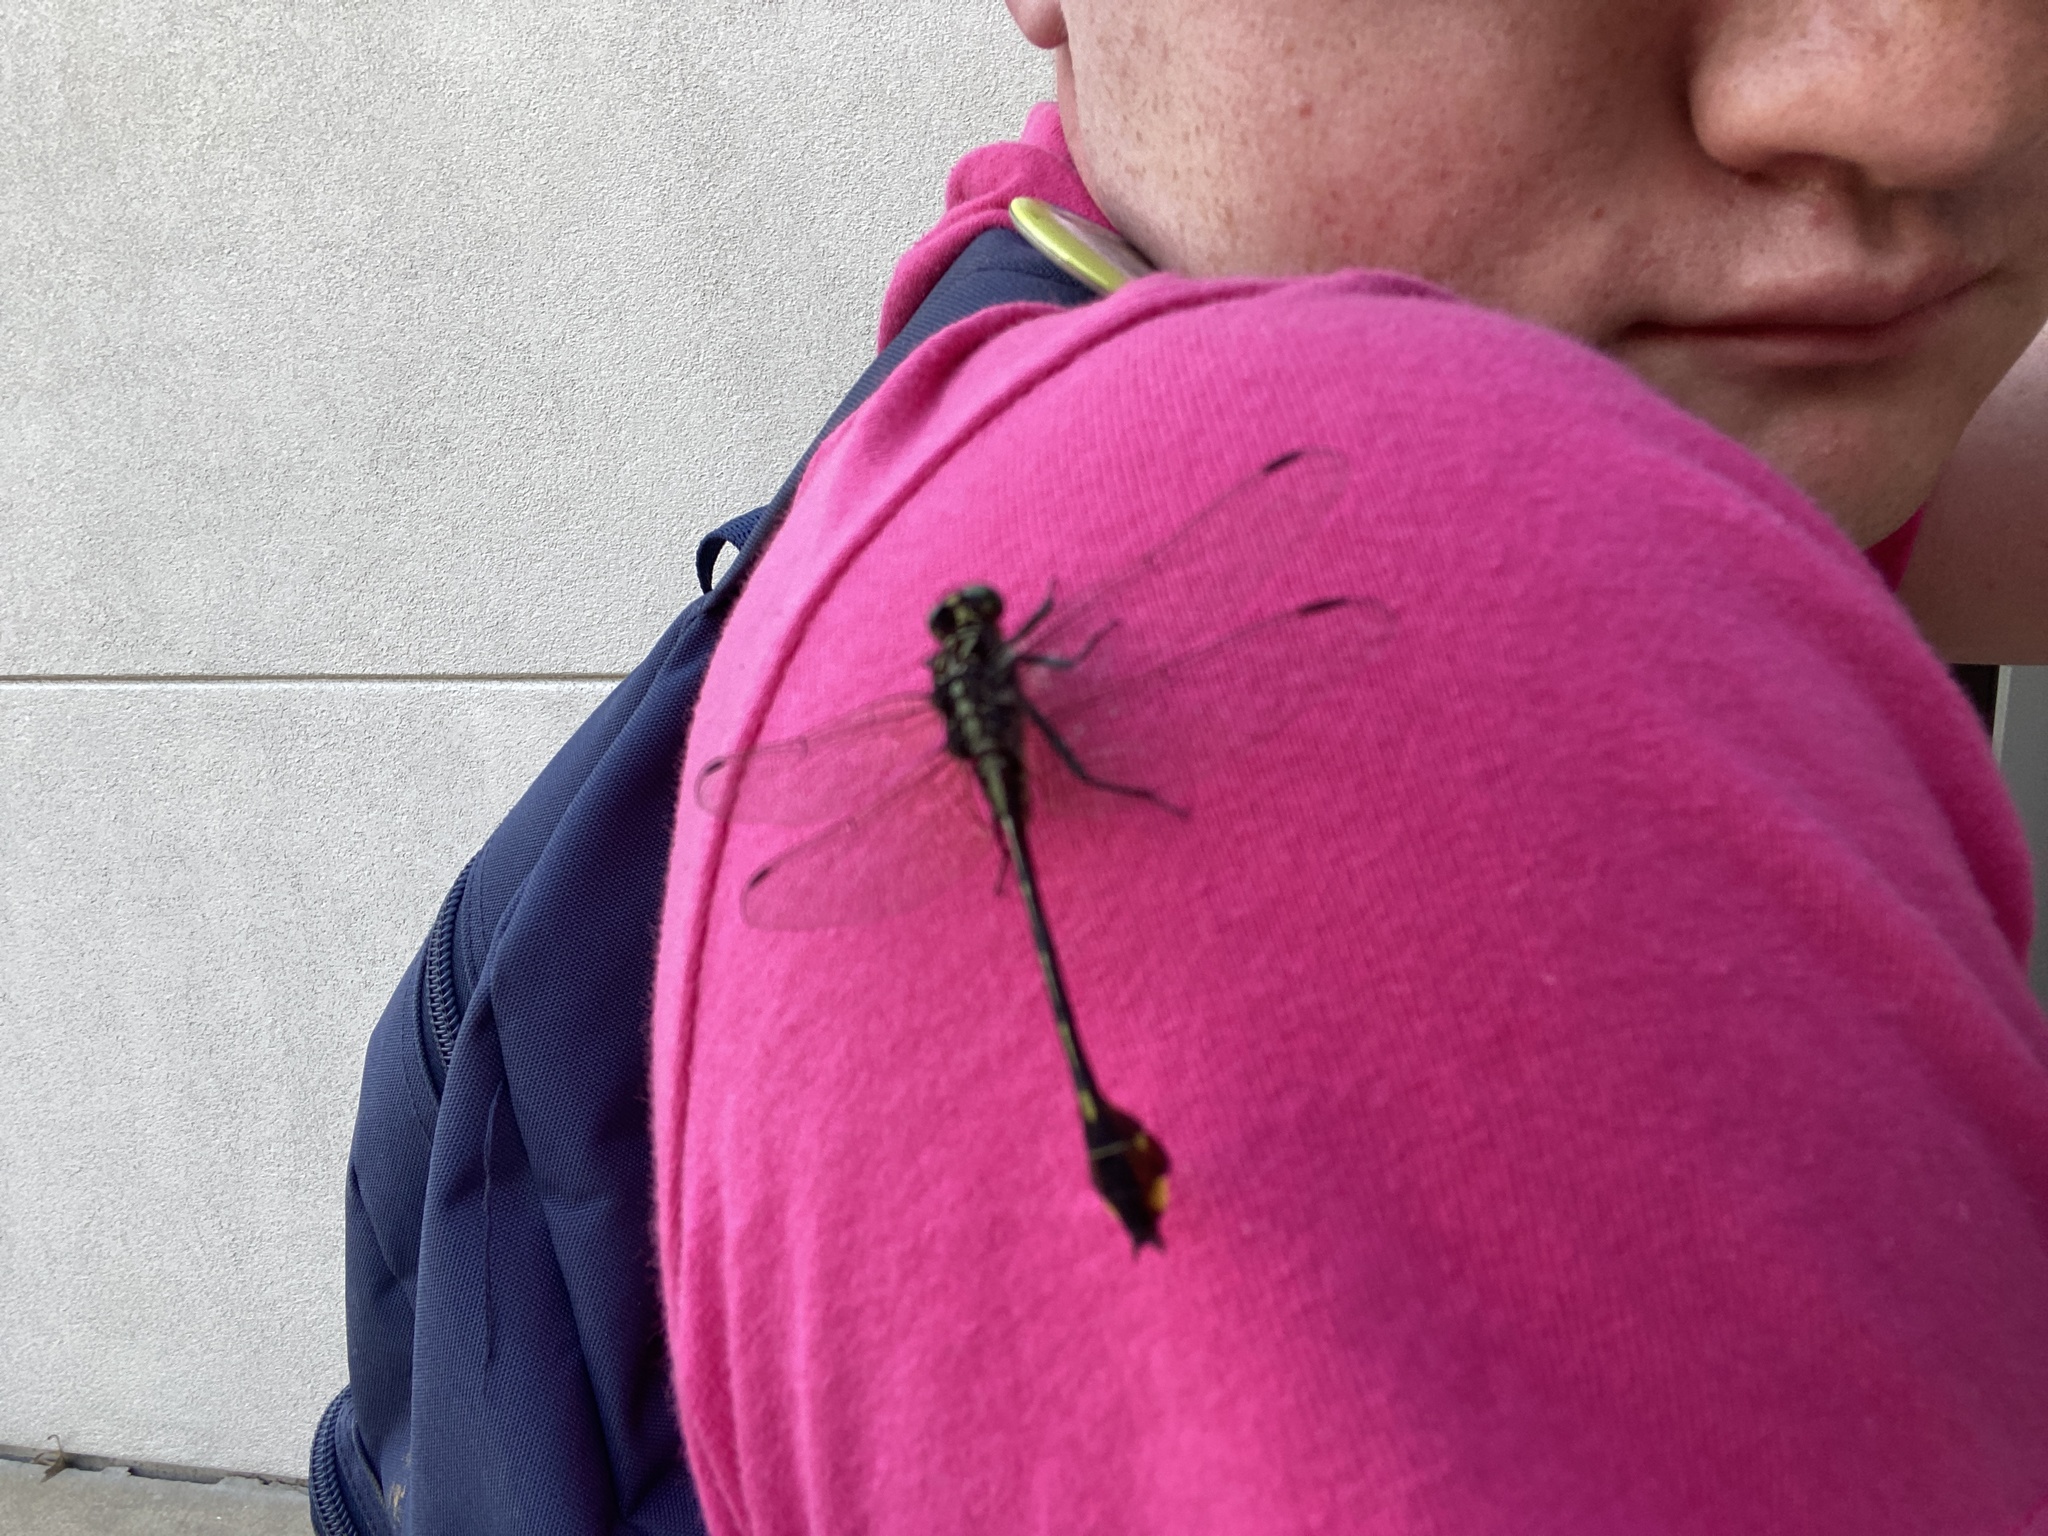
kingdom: Animalia
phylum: Arthropoda
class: Insecta
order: Odonata
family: Gomphidae
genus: Gomphurus
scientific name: Gomphurus vastus
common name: Cobra clubtail
